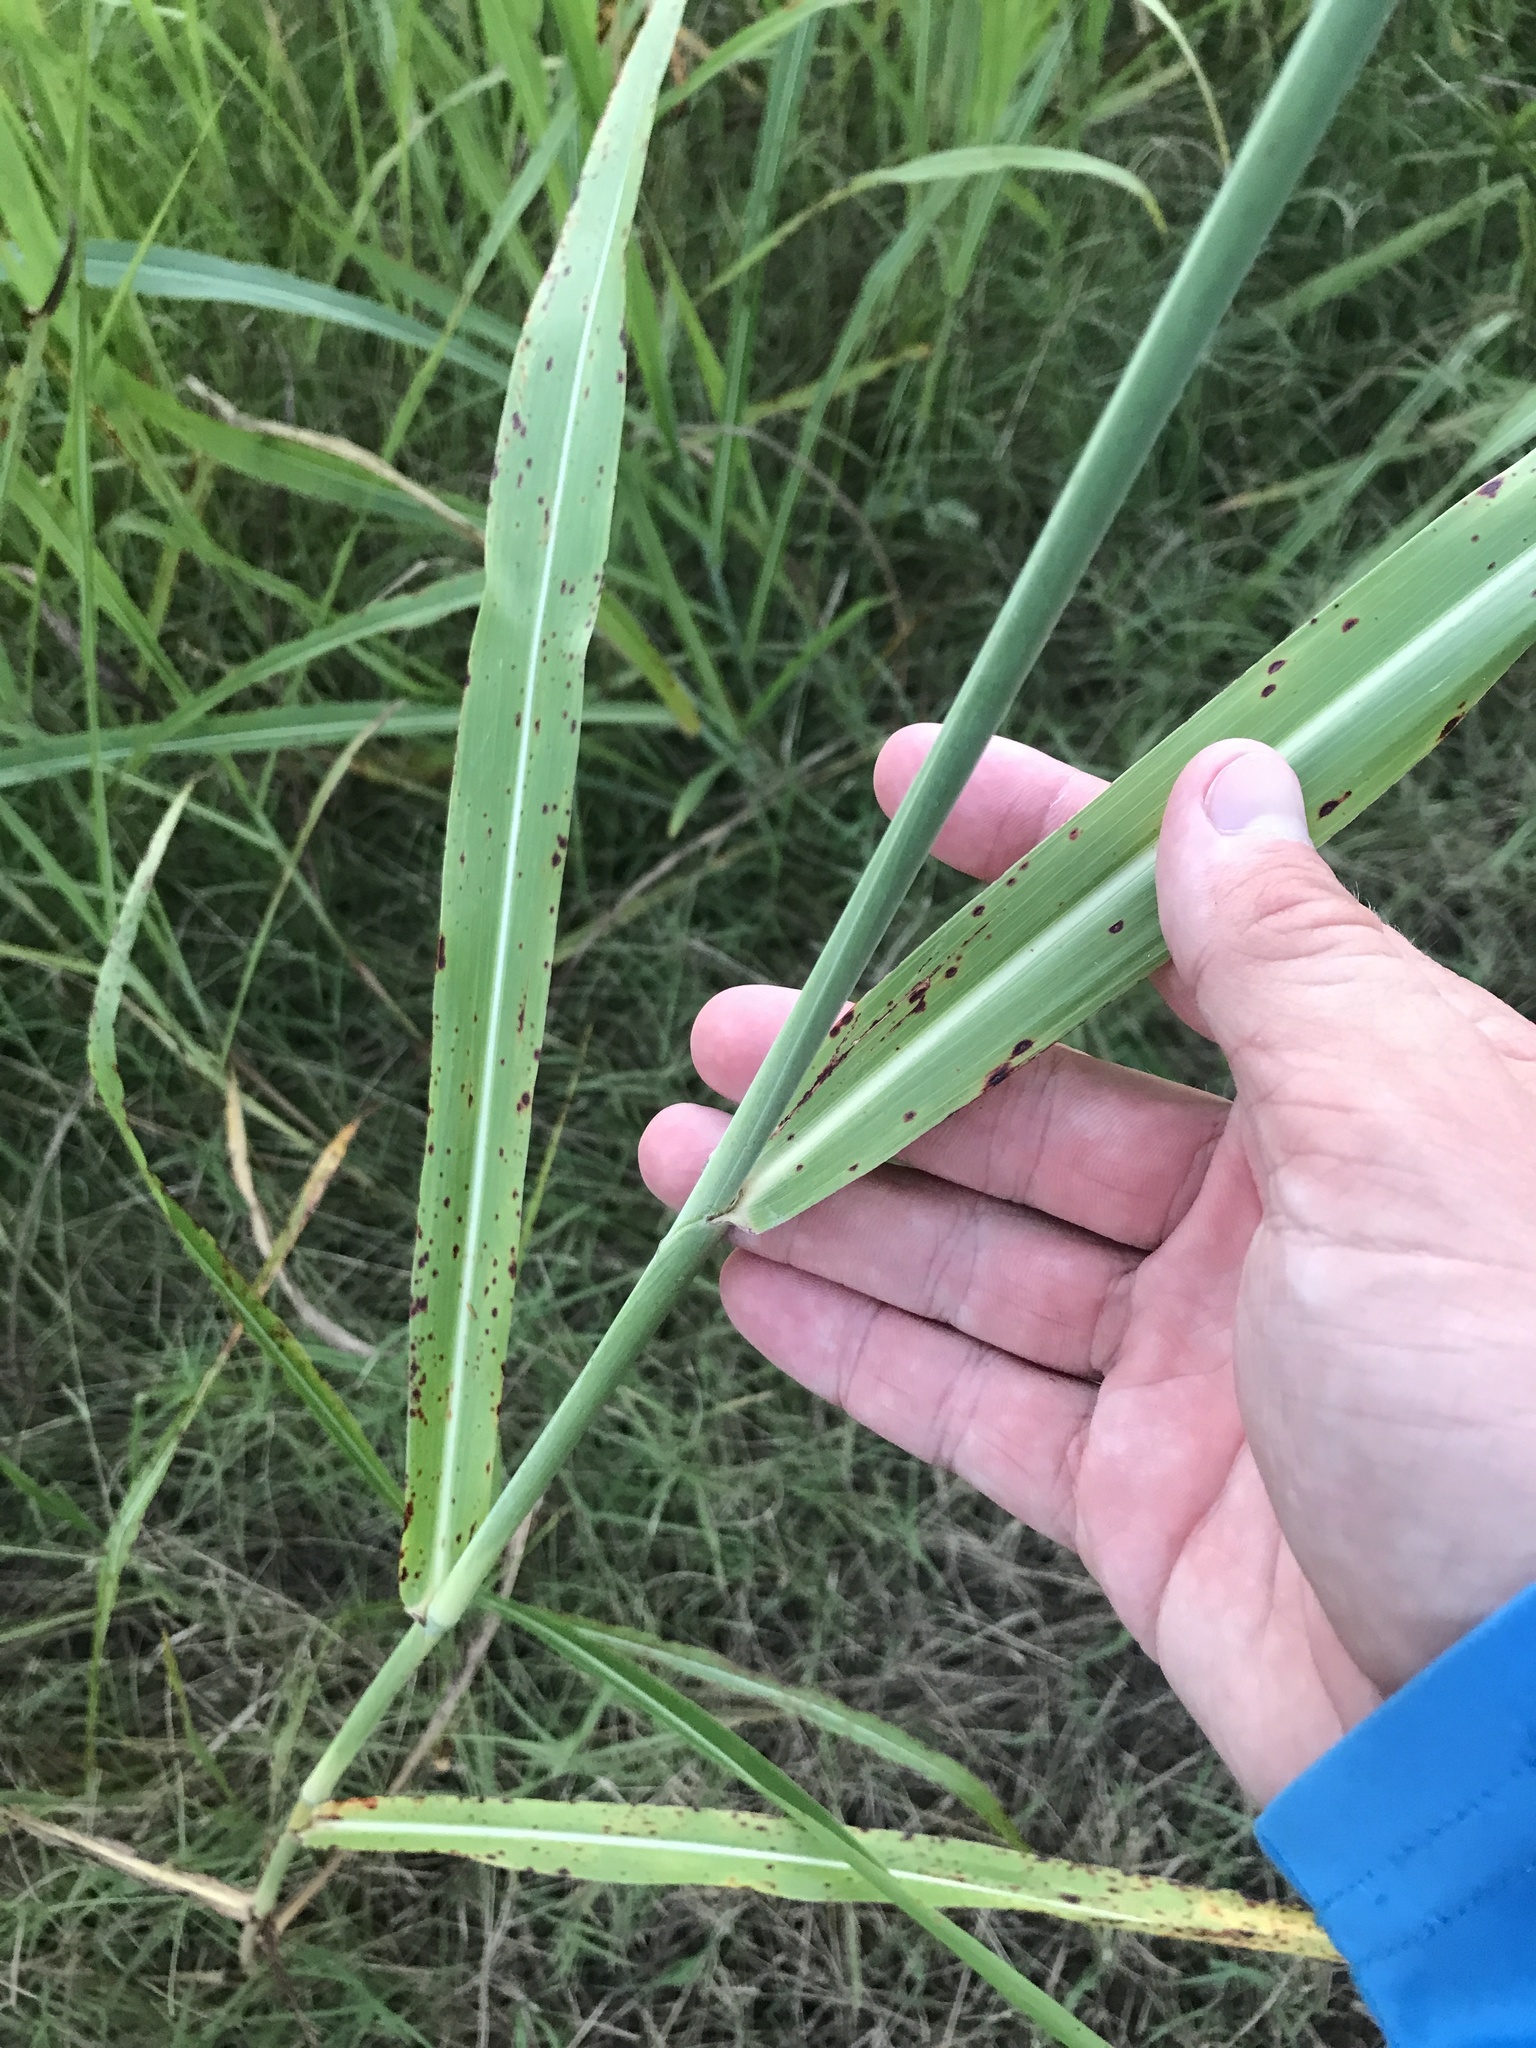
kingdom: Plantae
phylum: Tracheophyta
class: Liliopsida
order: Poales
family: Poaceae
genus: Sorghum
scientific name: Sorghum halepense
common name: Johnson-grass
